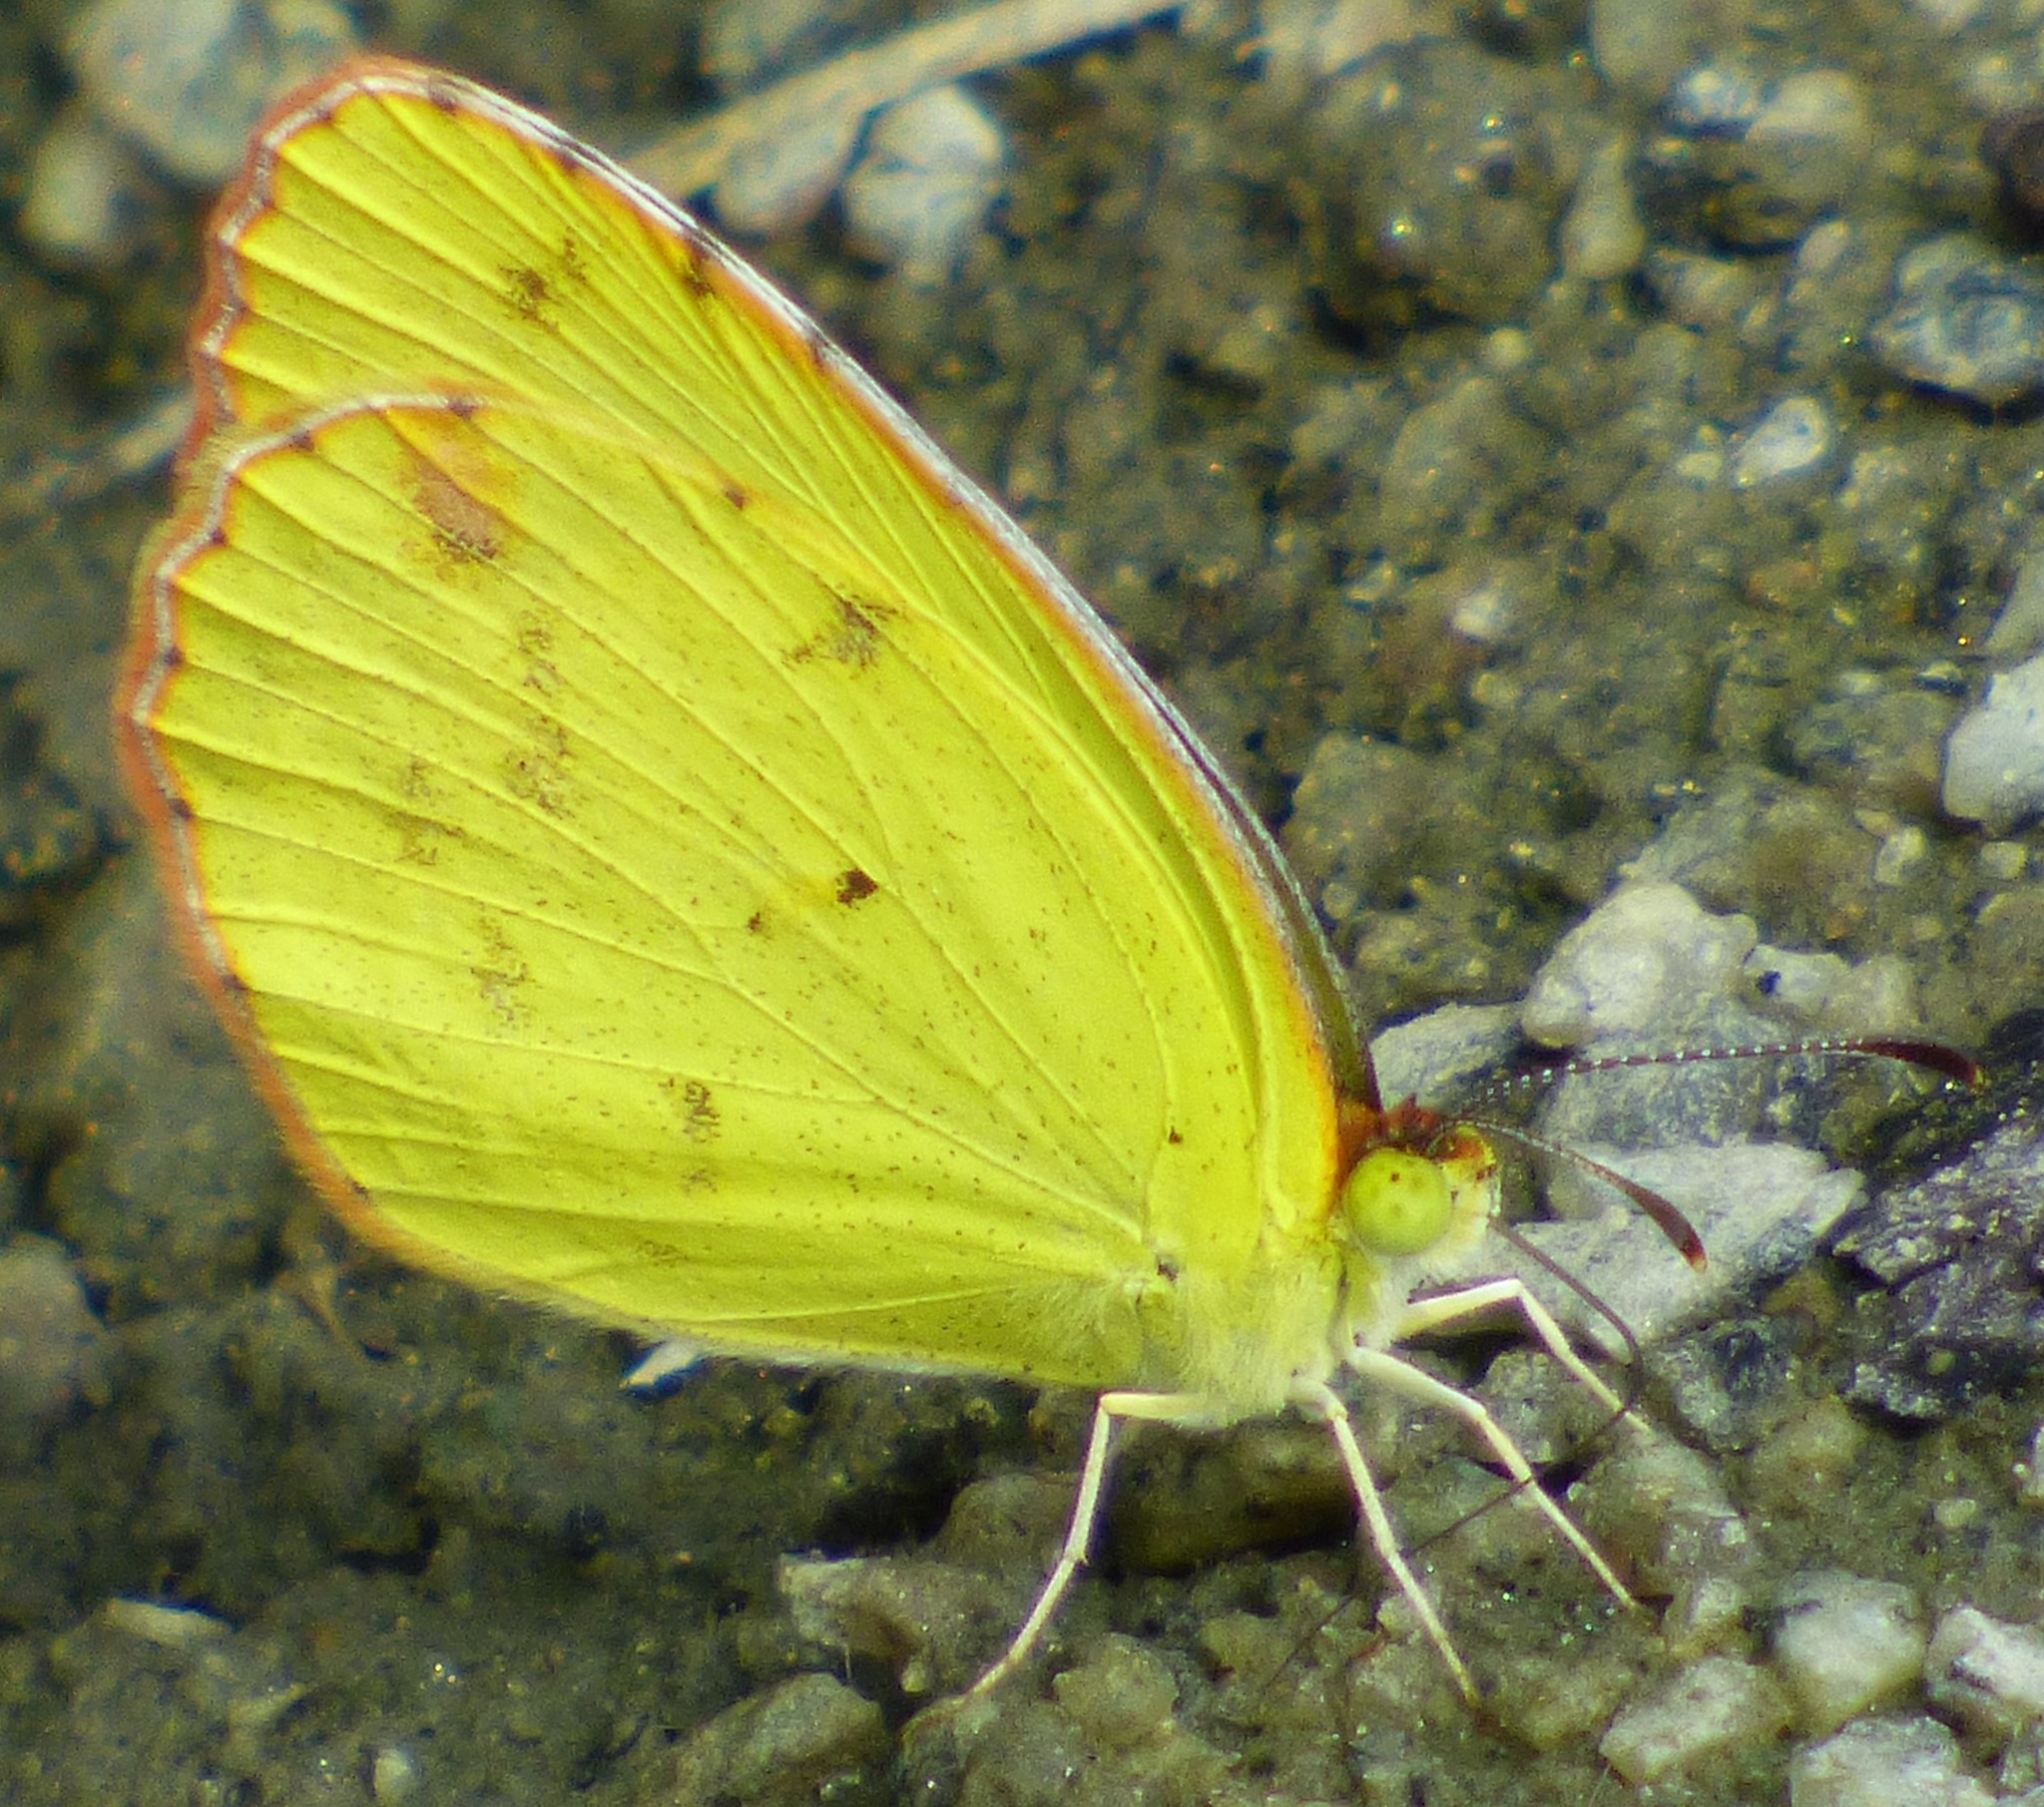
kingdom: Animalia
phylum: Arthropoda
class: Insecta
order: Lepidoptera
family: Pieridae
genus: Pyrisitia
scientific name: Pyrisitia lisa
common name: Little yellow
